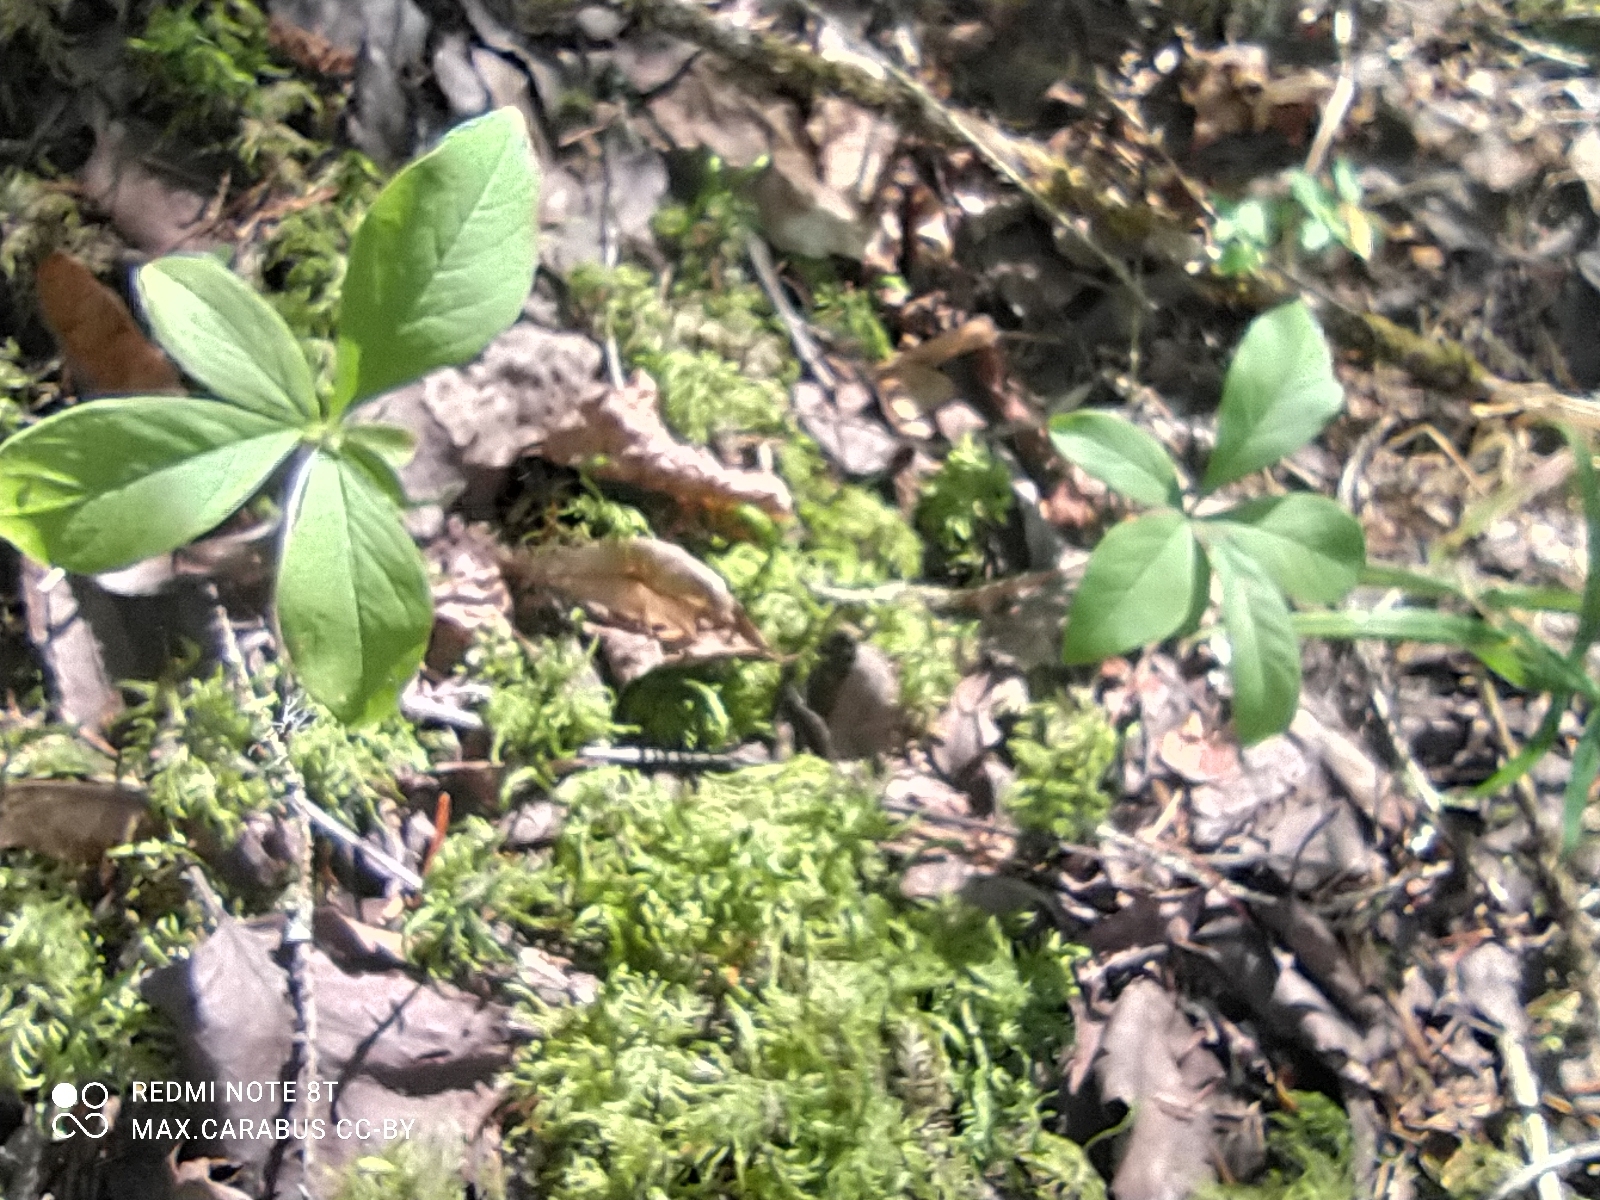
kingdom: Plantae
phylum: Tracheophyta
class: Magnoliopsida
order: Ericales
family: Primulaceae
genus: Lysimachia
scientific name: Lysimachia europaea
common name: Arctic starflower
